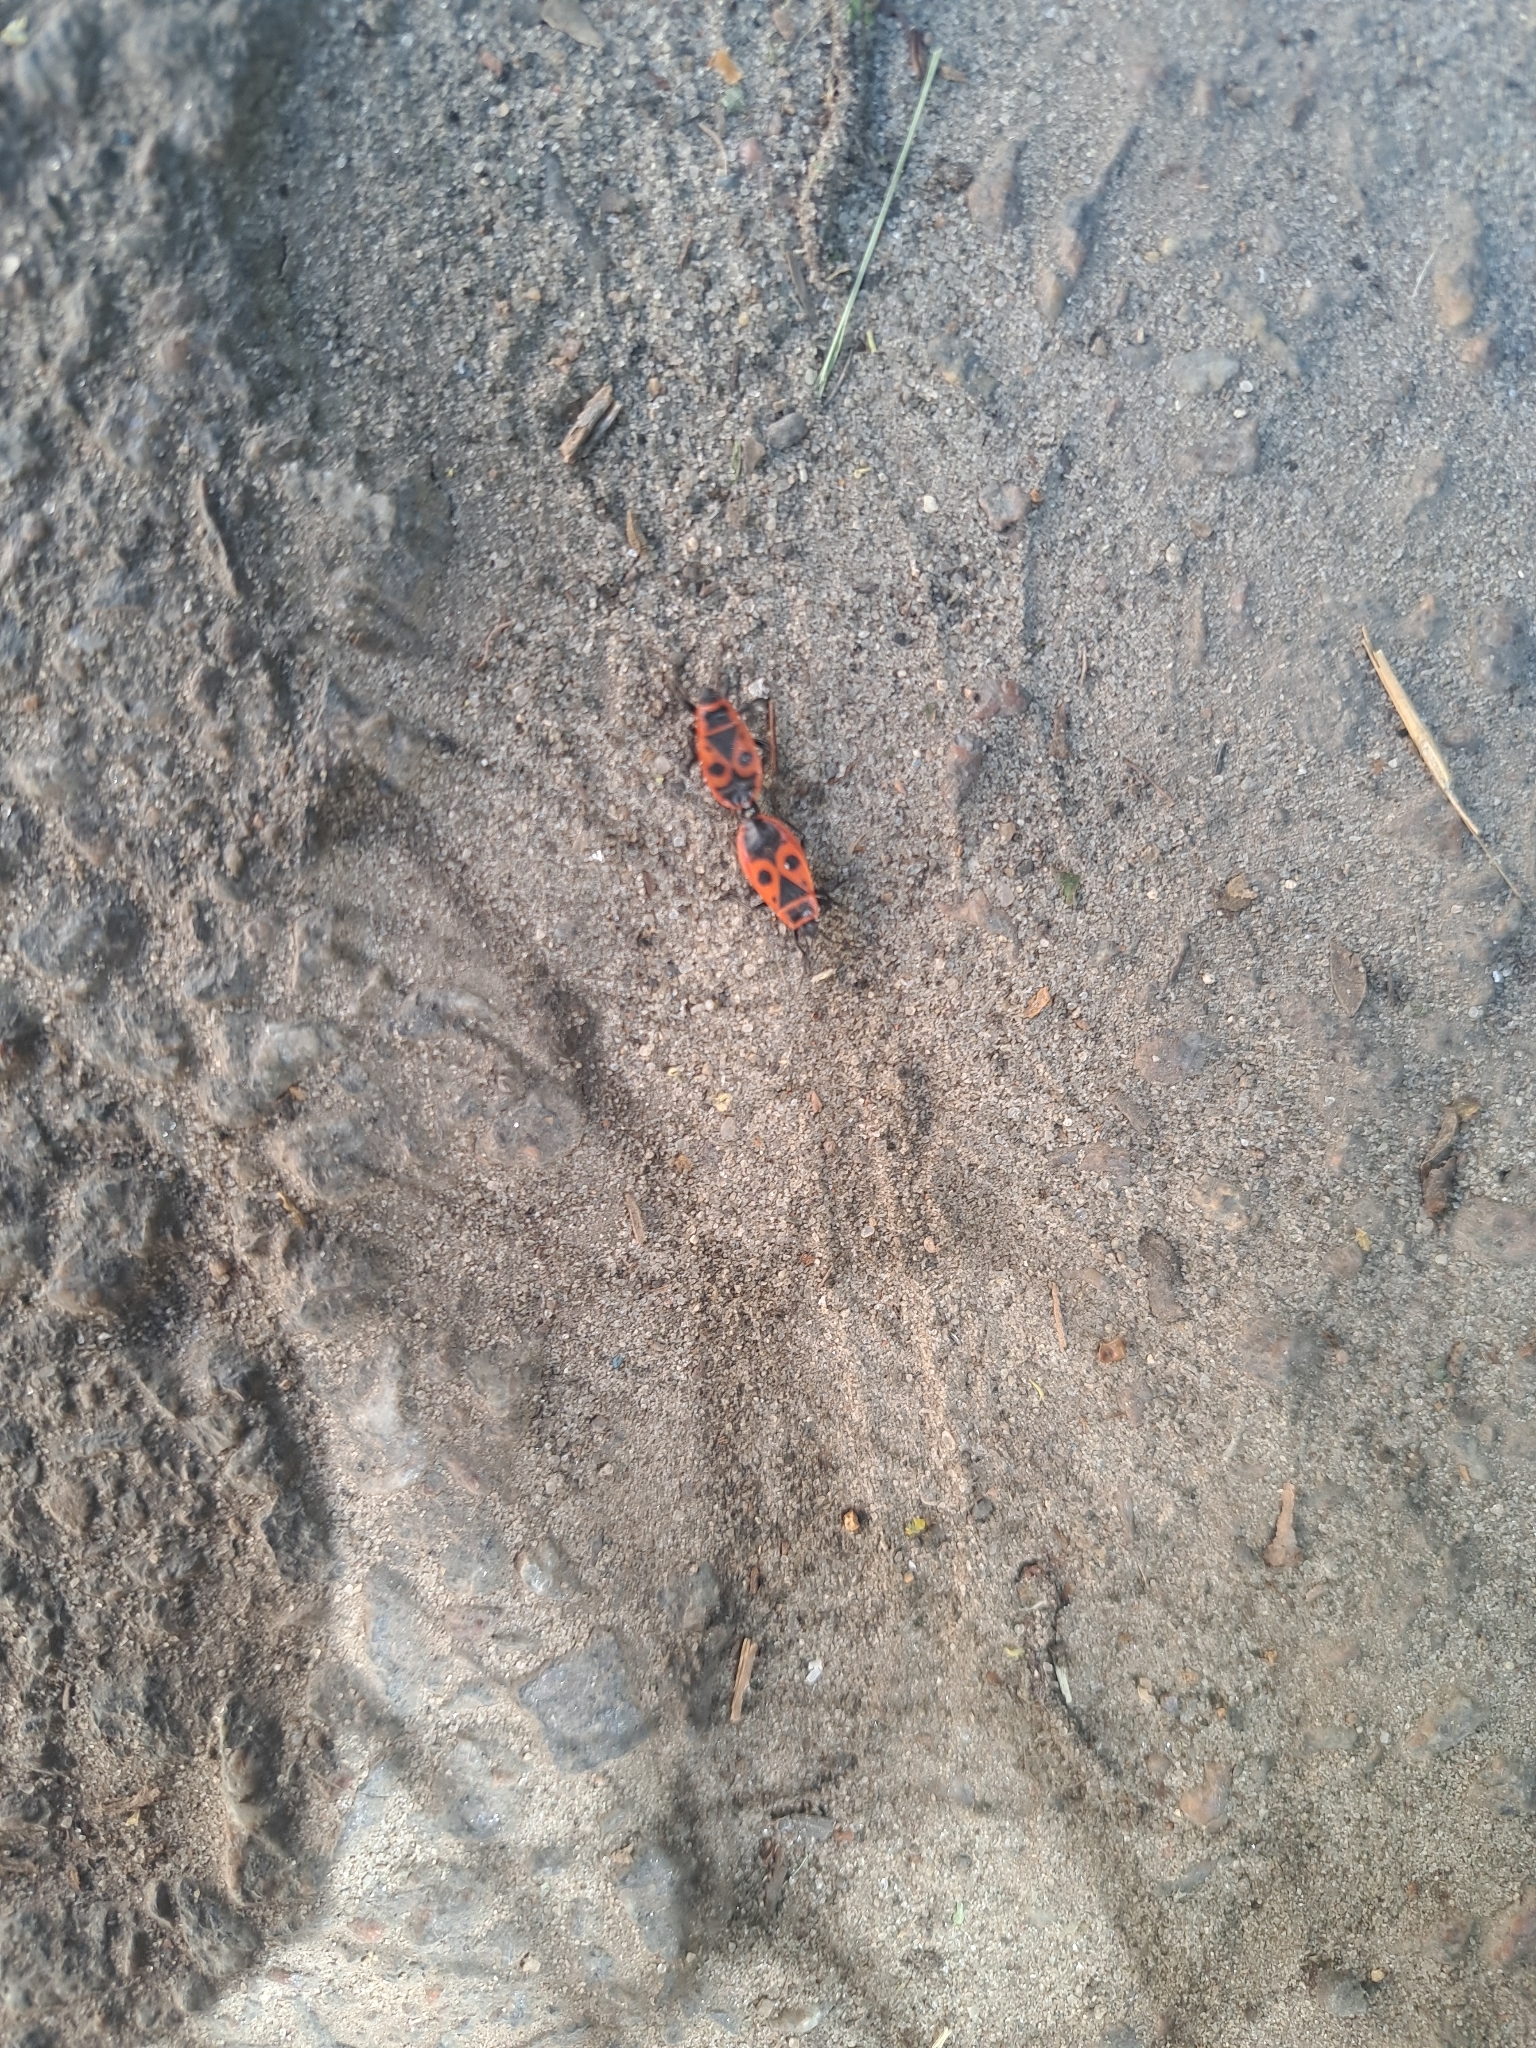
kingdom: Animalia
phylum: Arthropoda
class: Insecta
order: Hemiptera
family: Pyrrhocoridae
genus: Pyrrhocoris
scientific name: Pyrrhocoris apterus
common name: Firebug
